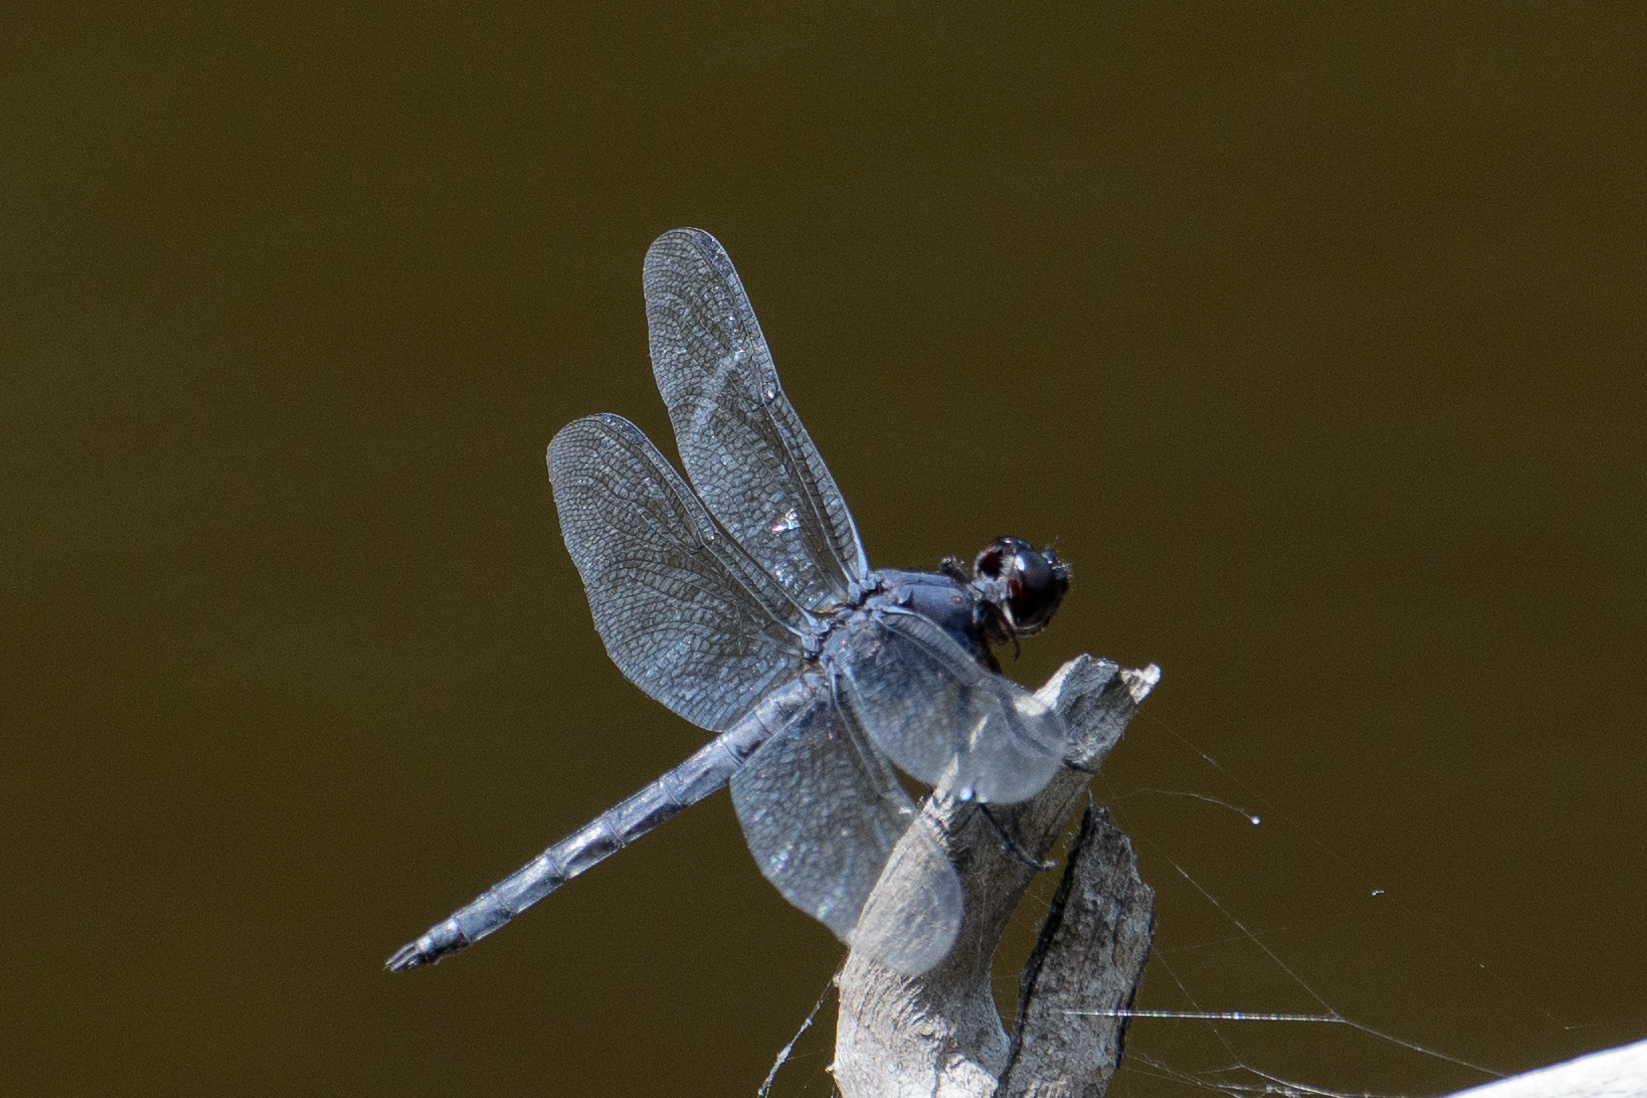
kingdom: Animalia
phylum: Arthropoda
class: Insecta
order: Odonata
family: Libellulidae
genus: Libellula
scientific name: Libellula incesta
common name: Slaty skimmer
